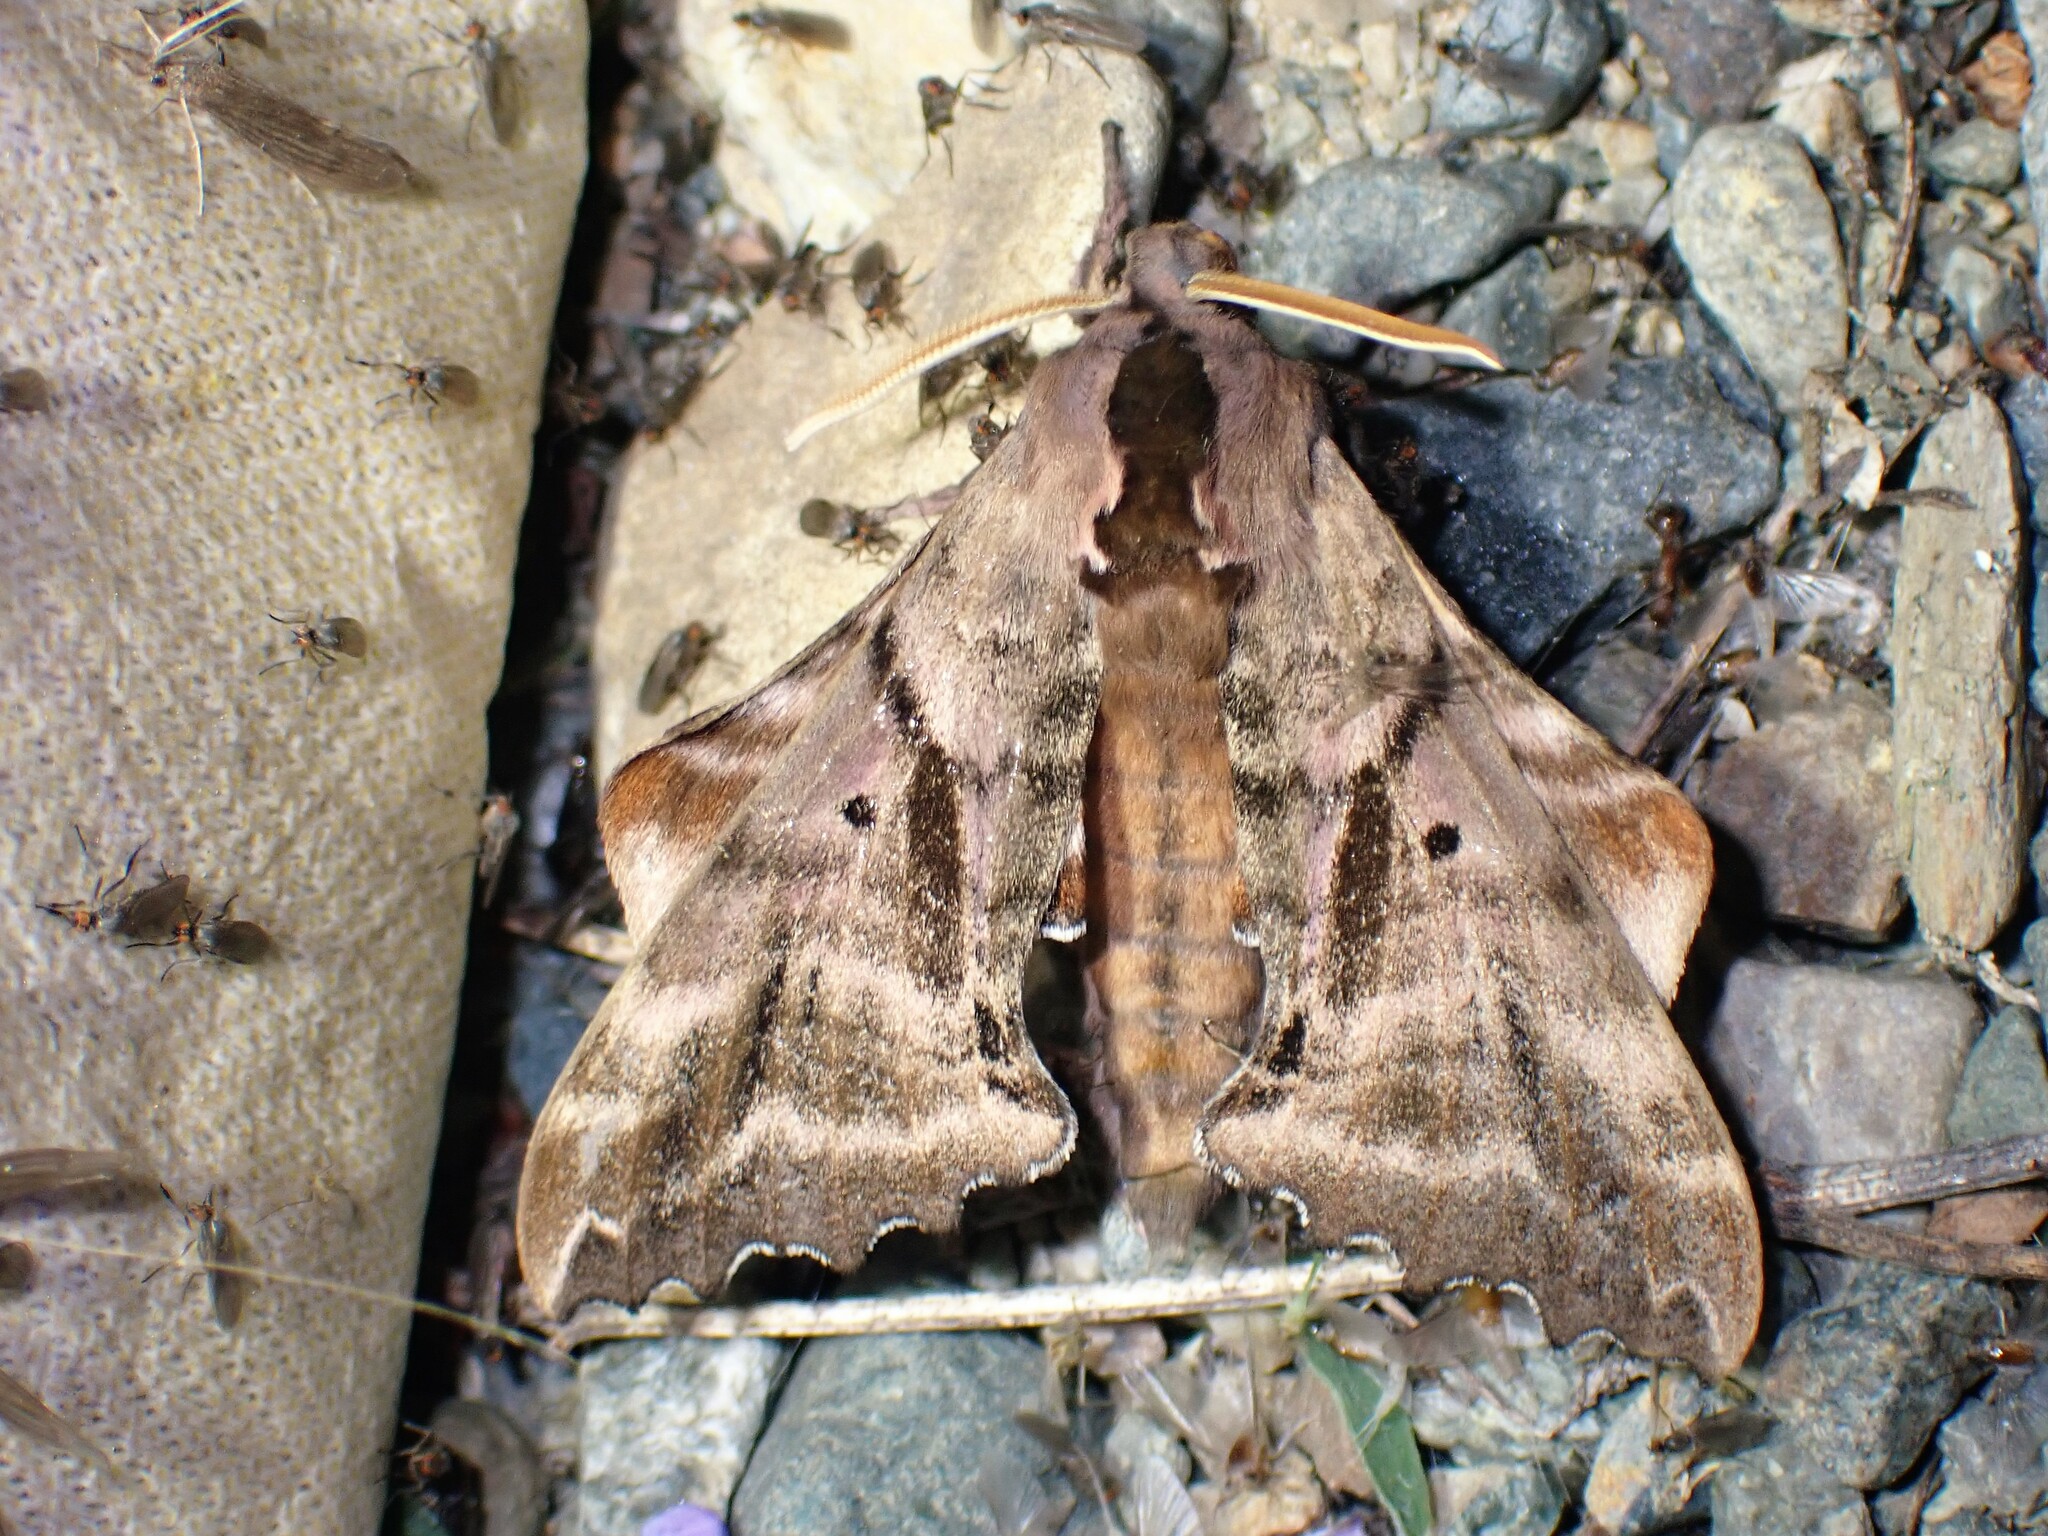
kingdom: Animalia
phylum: Arthropoda
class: Insecta
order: Lepidoptera
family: Sphingidae
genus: Paonias
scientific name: Paonias excaecata
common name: Blind-eyed sphinx
